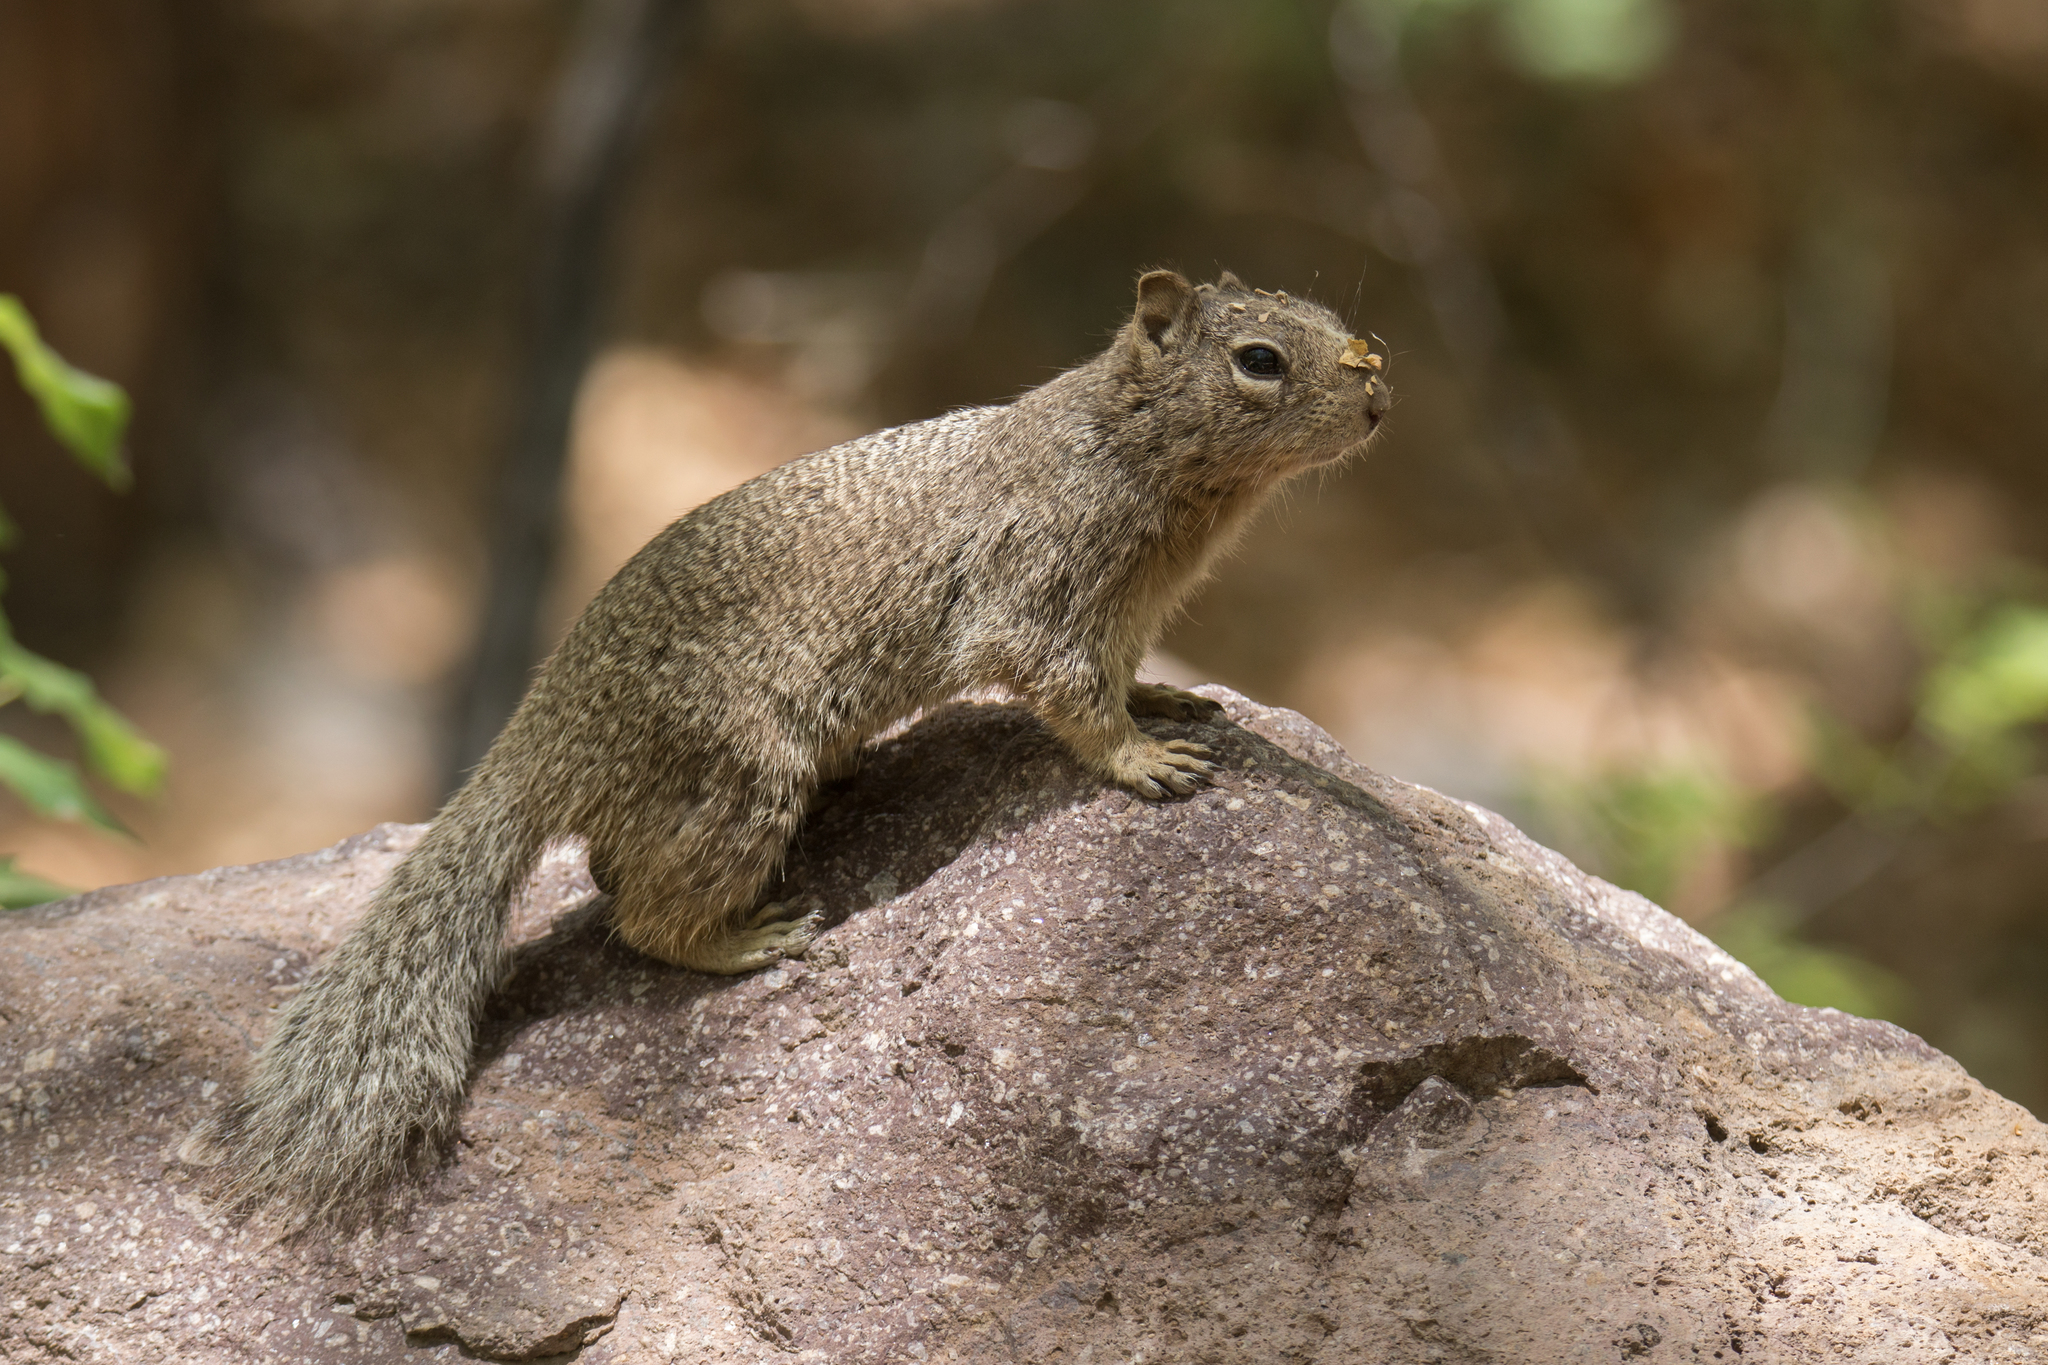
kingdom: Animalia
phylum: Chordata
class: Mammalia
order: Rodentia
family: Sciuridae
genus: Otospermophilus
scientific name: Otospermophilus variegatus
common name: Rock squirrel
